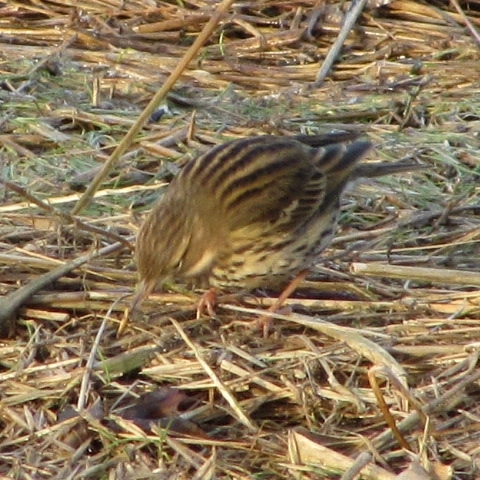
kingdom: Animalia
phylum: Chordata
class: Aves
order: Passeriformes
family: Motacillidae
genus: Anthus
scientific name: Anthus pratensis
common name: Meadow pipit
